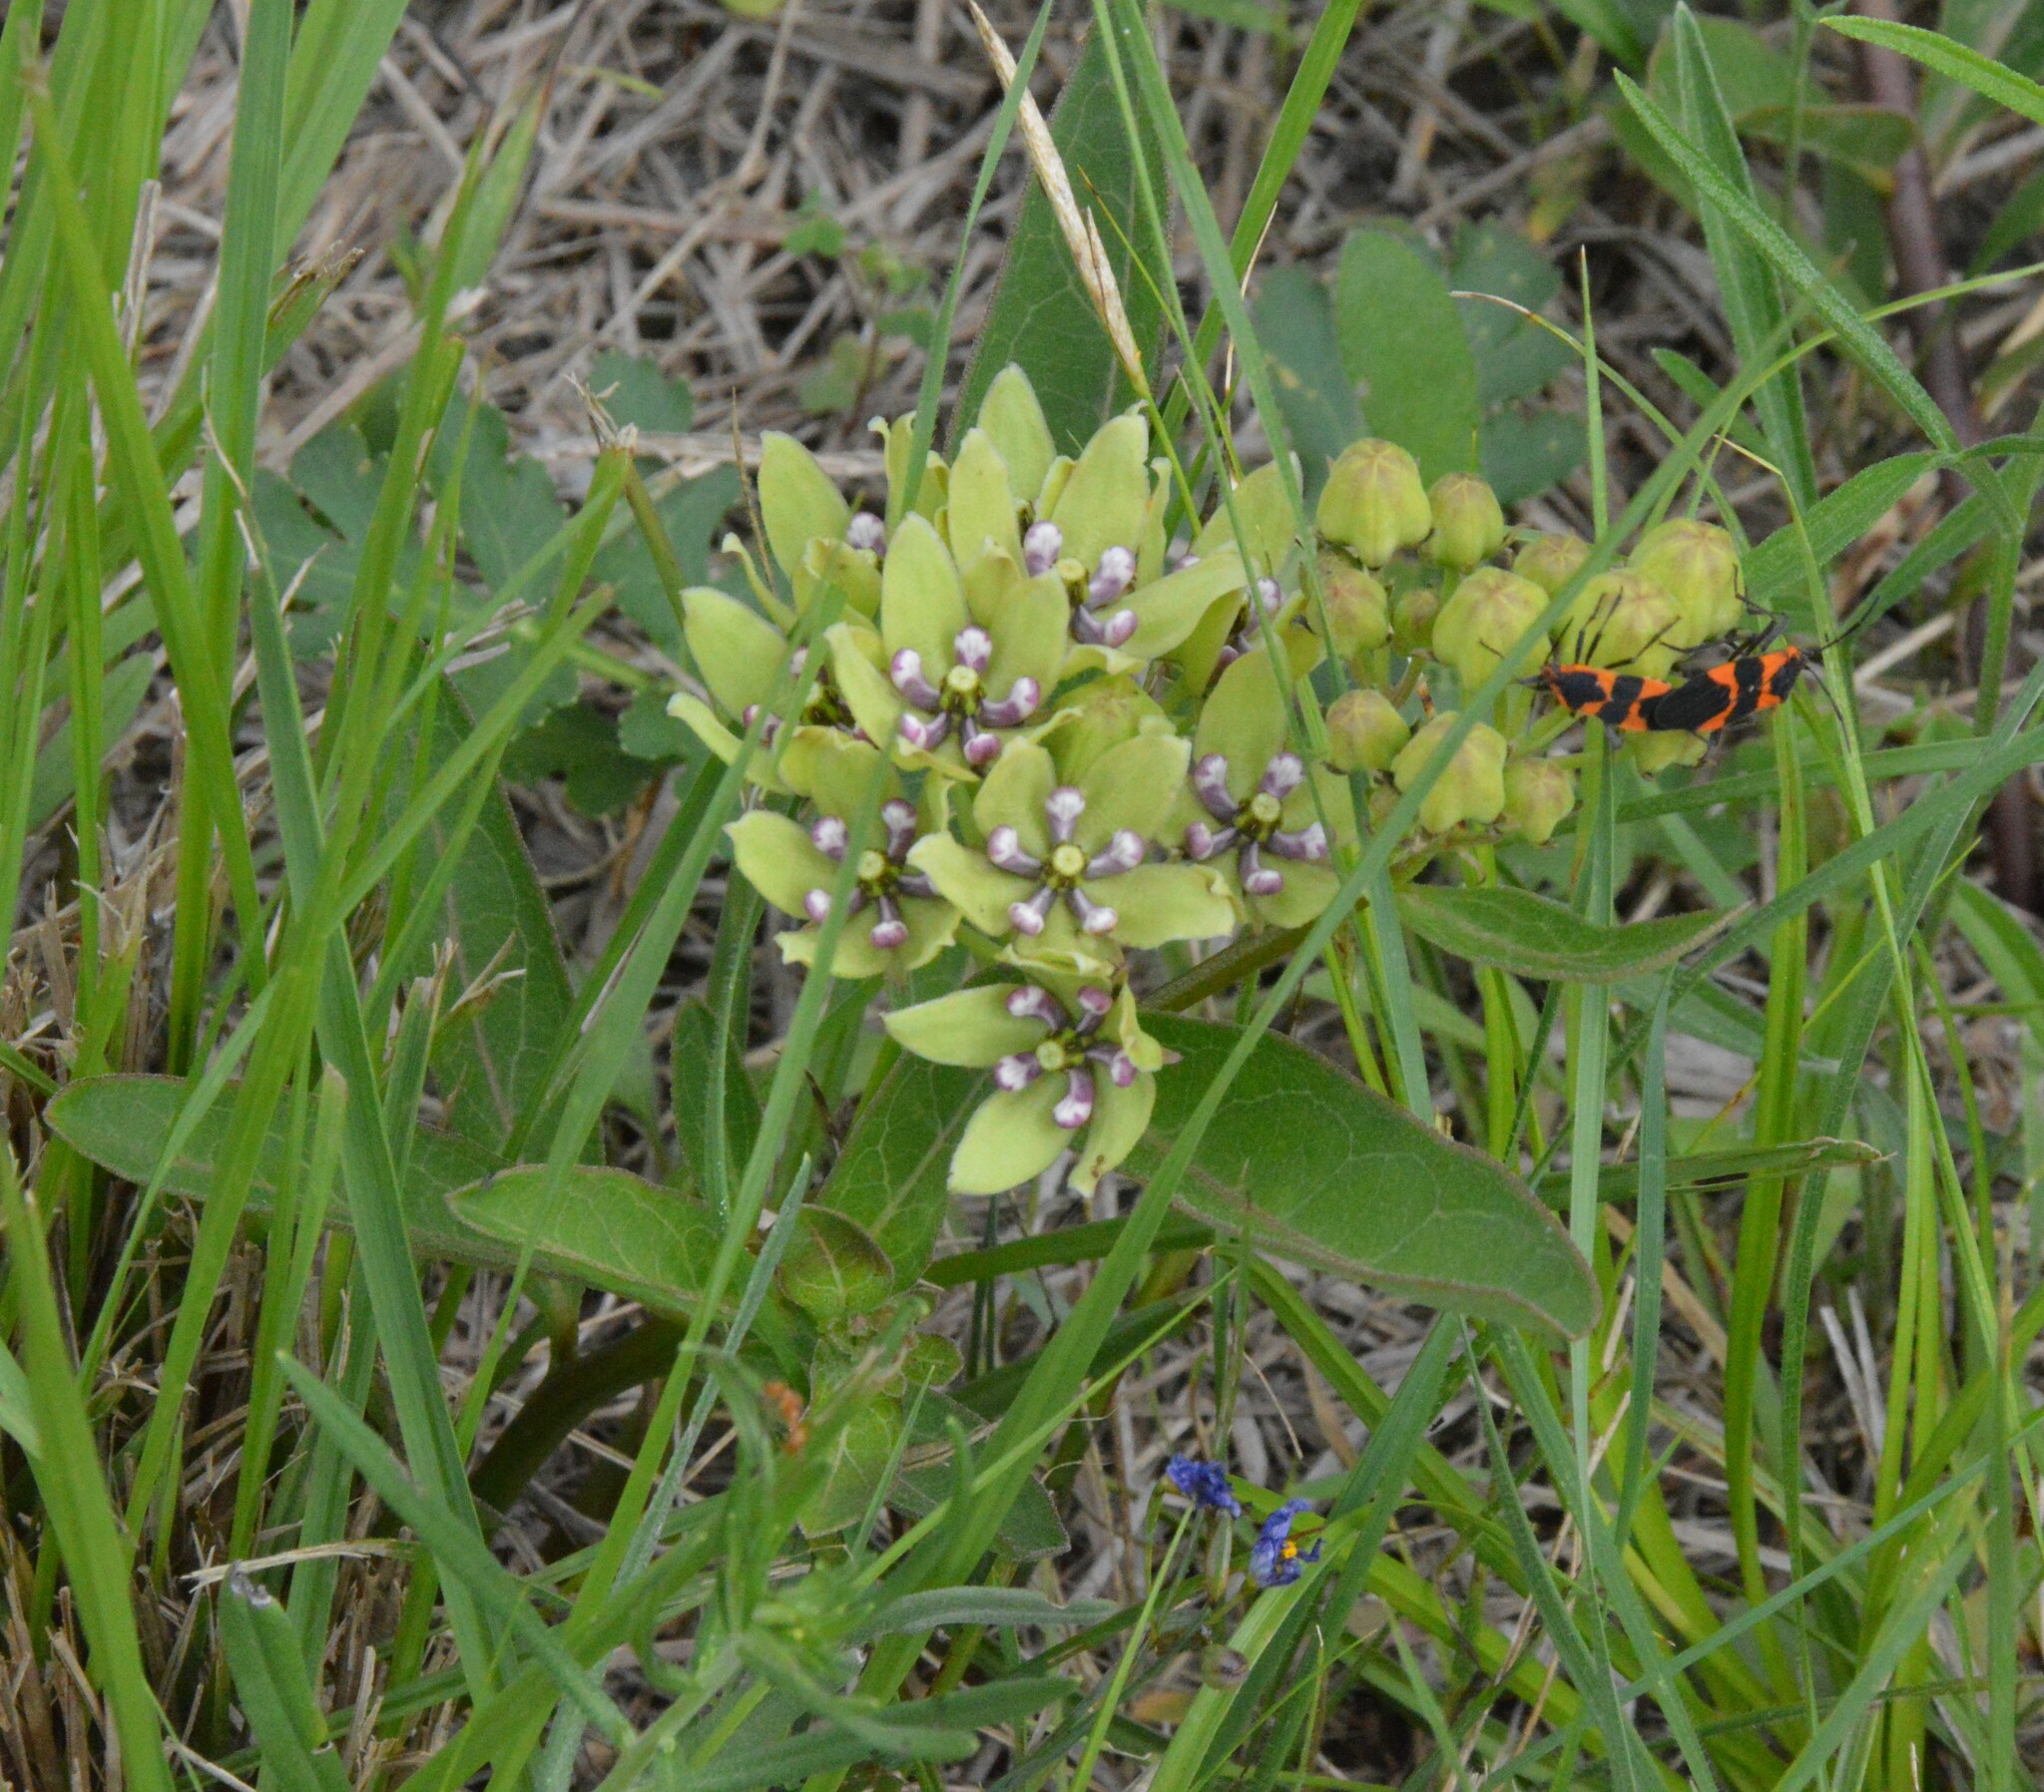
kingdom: Plantae
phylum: Tracheophyta
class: Magnoliopsida
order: Gentianales
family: Apocynaceae
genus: Asclepias
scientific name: Asclepias viridis
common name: Antelope-horns
